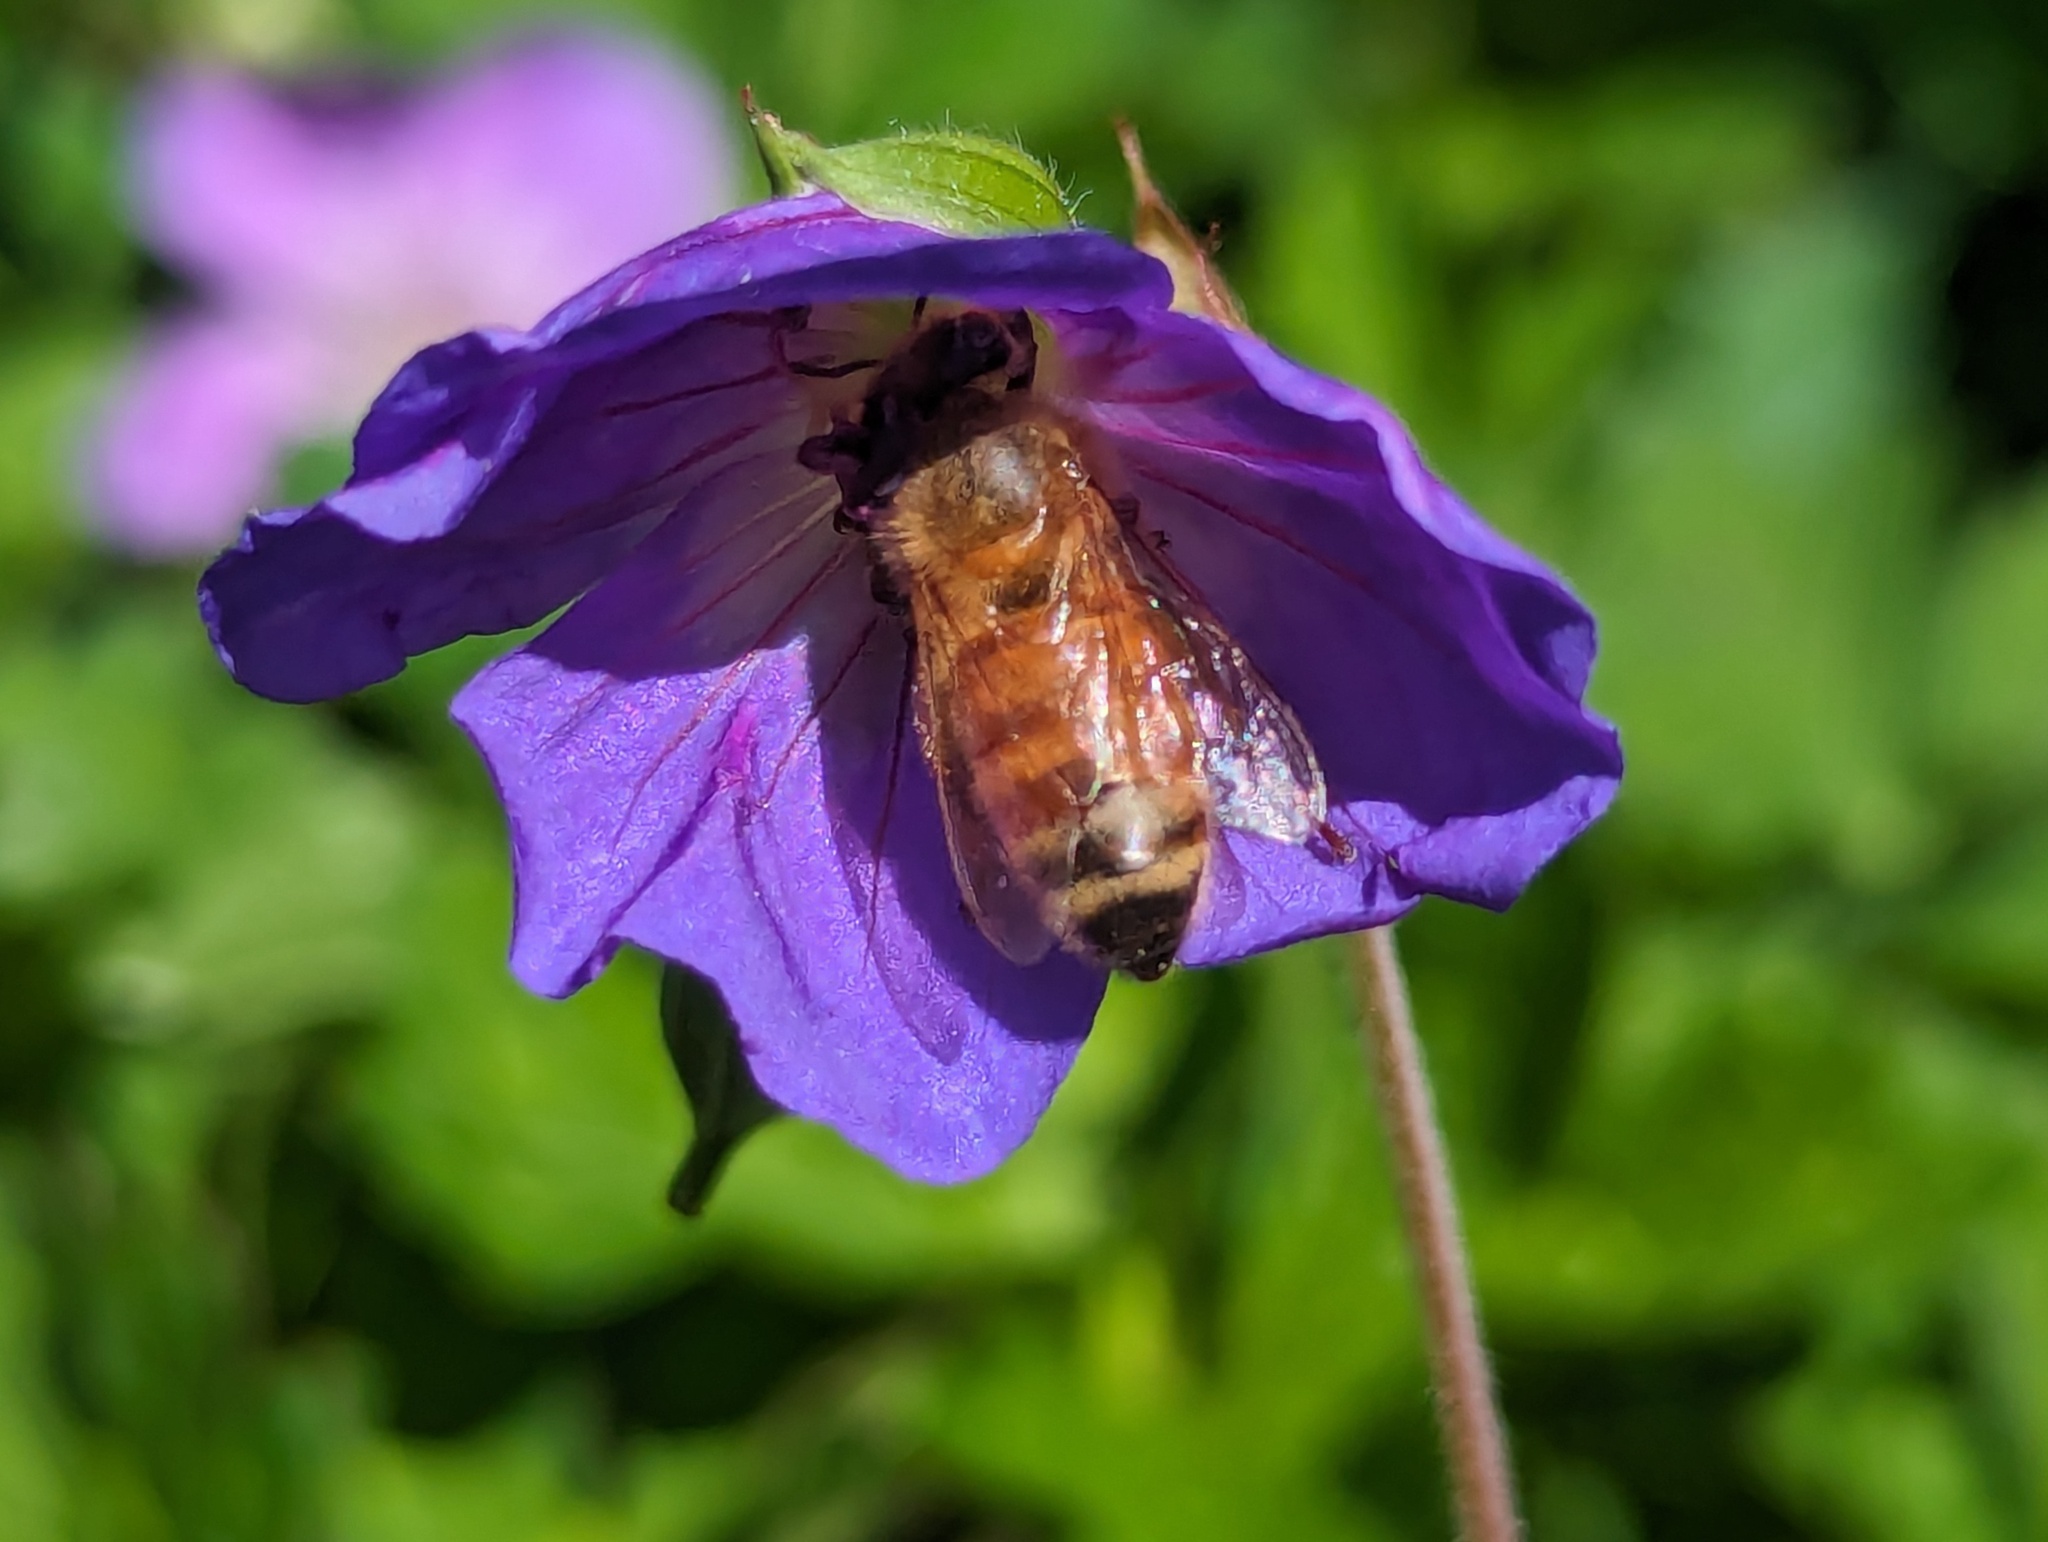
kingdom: Animalia
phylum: Arthropoda
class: Insecta
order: Hymenoptera
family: Apidae
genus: Apis
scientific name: Apis mellifera
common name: Honey bee
